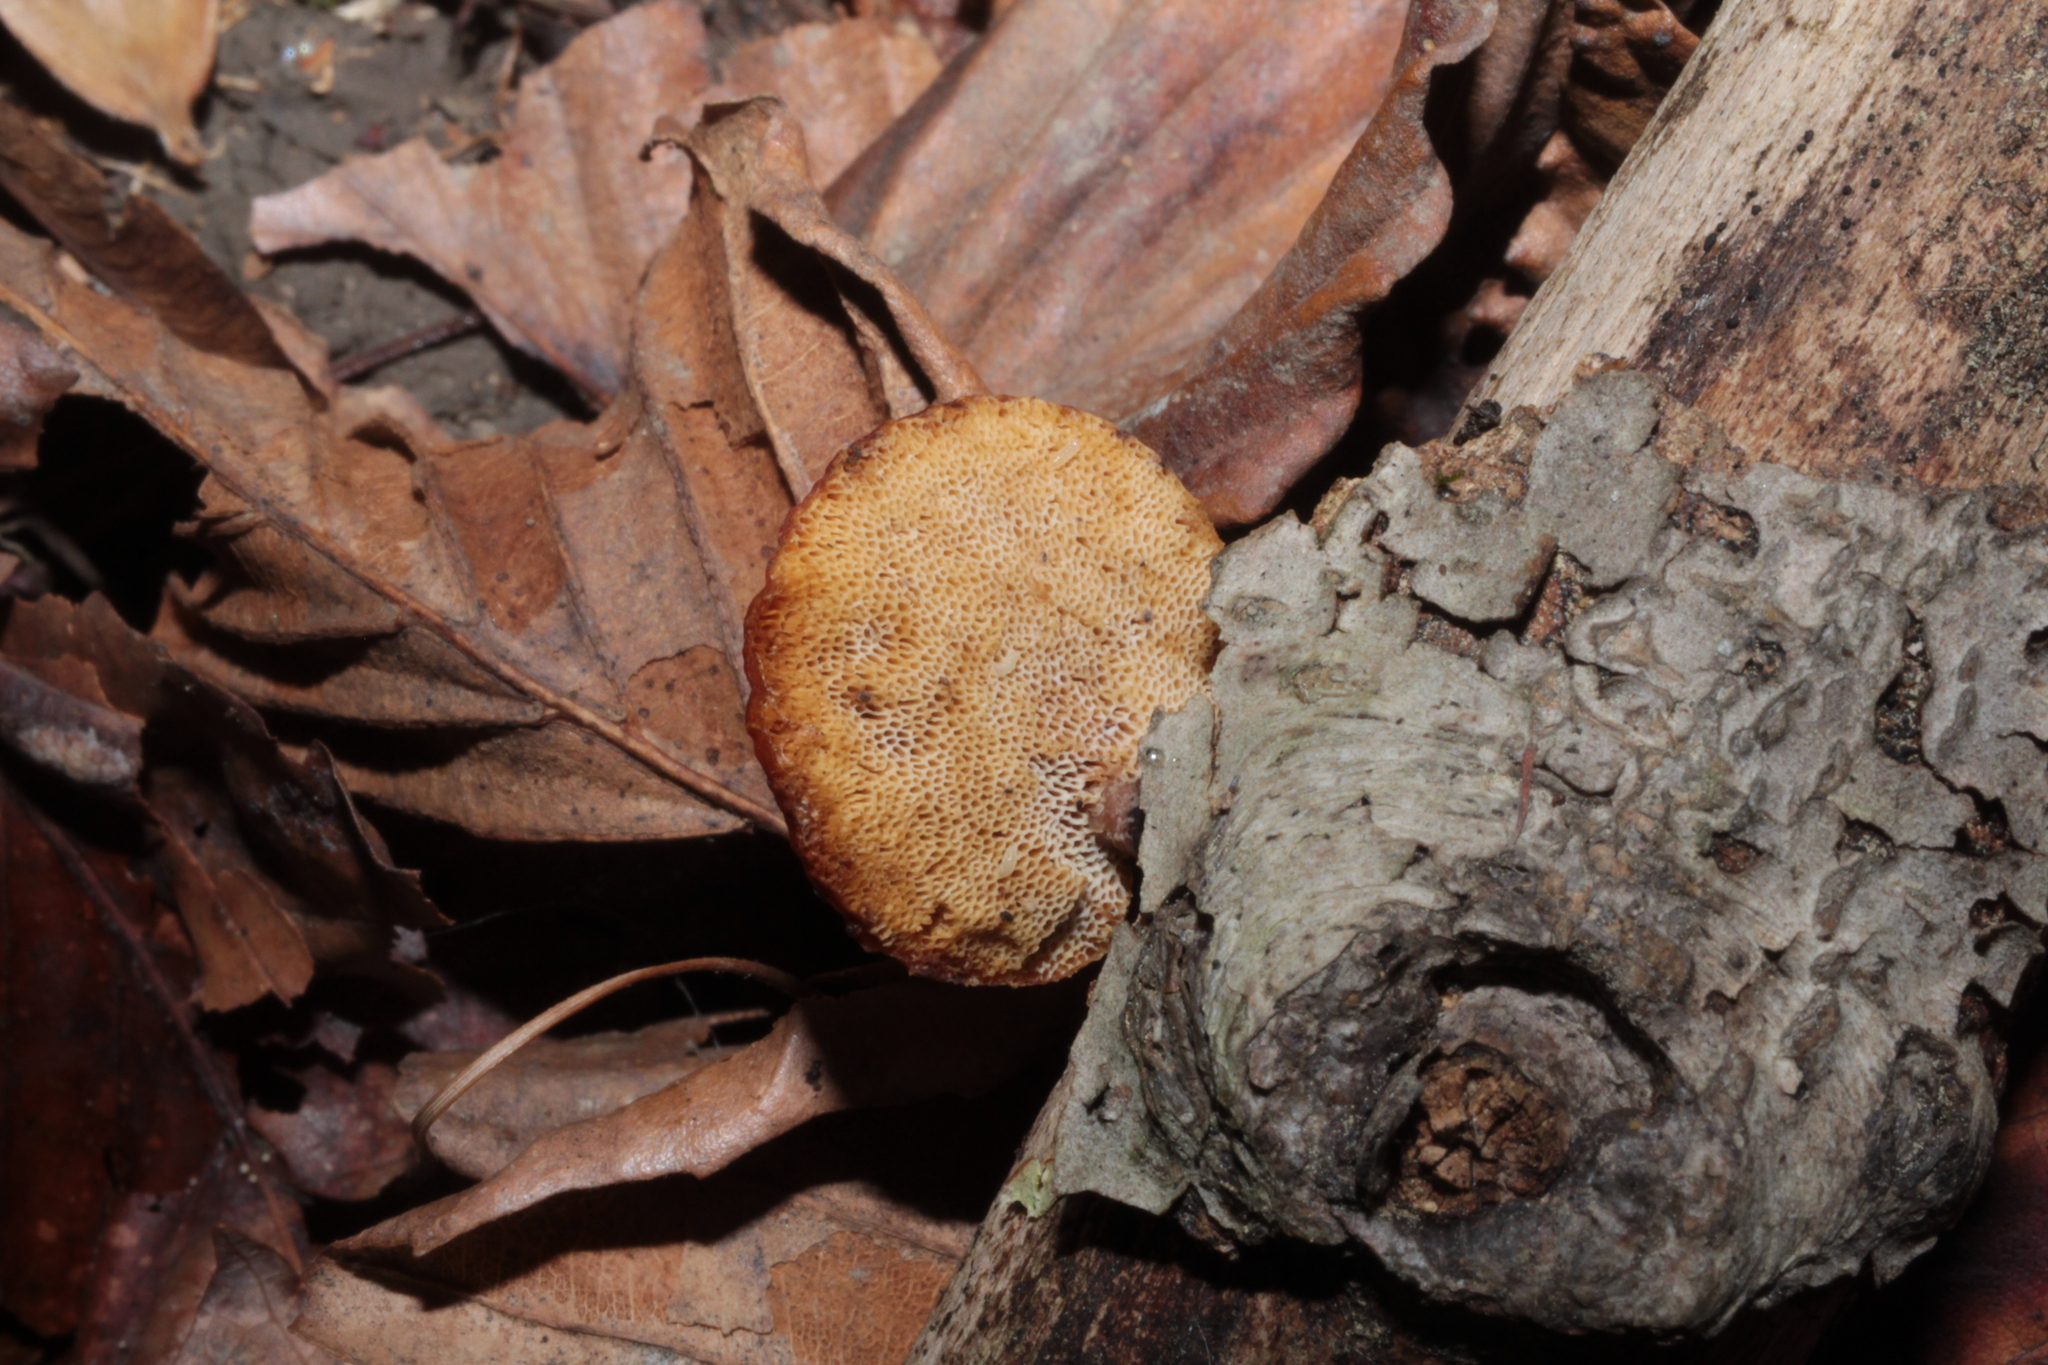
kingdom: Fungi
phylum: Basidiomycota
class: Agaricomycetes
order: Polyporales
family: Polyporaceae
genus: Neofavolus
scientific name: Neofavolus alveolaris
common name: Hexagonal-pored polypore
